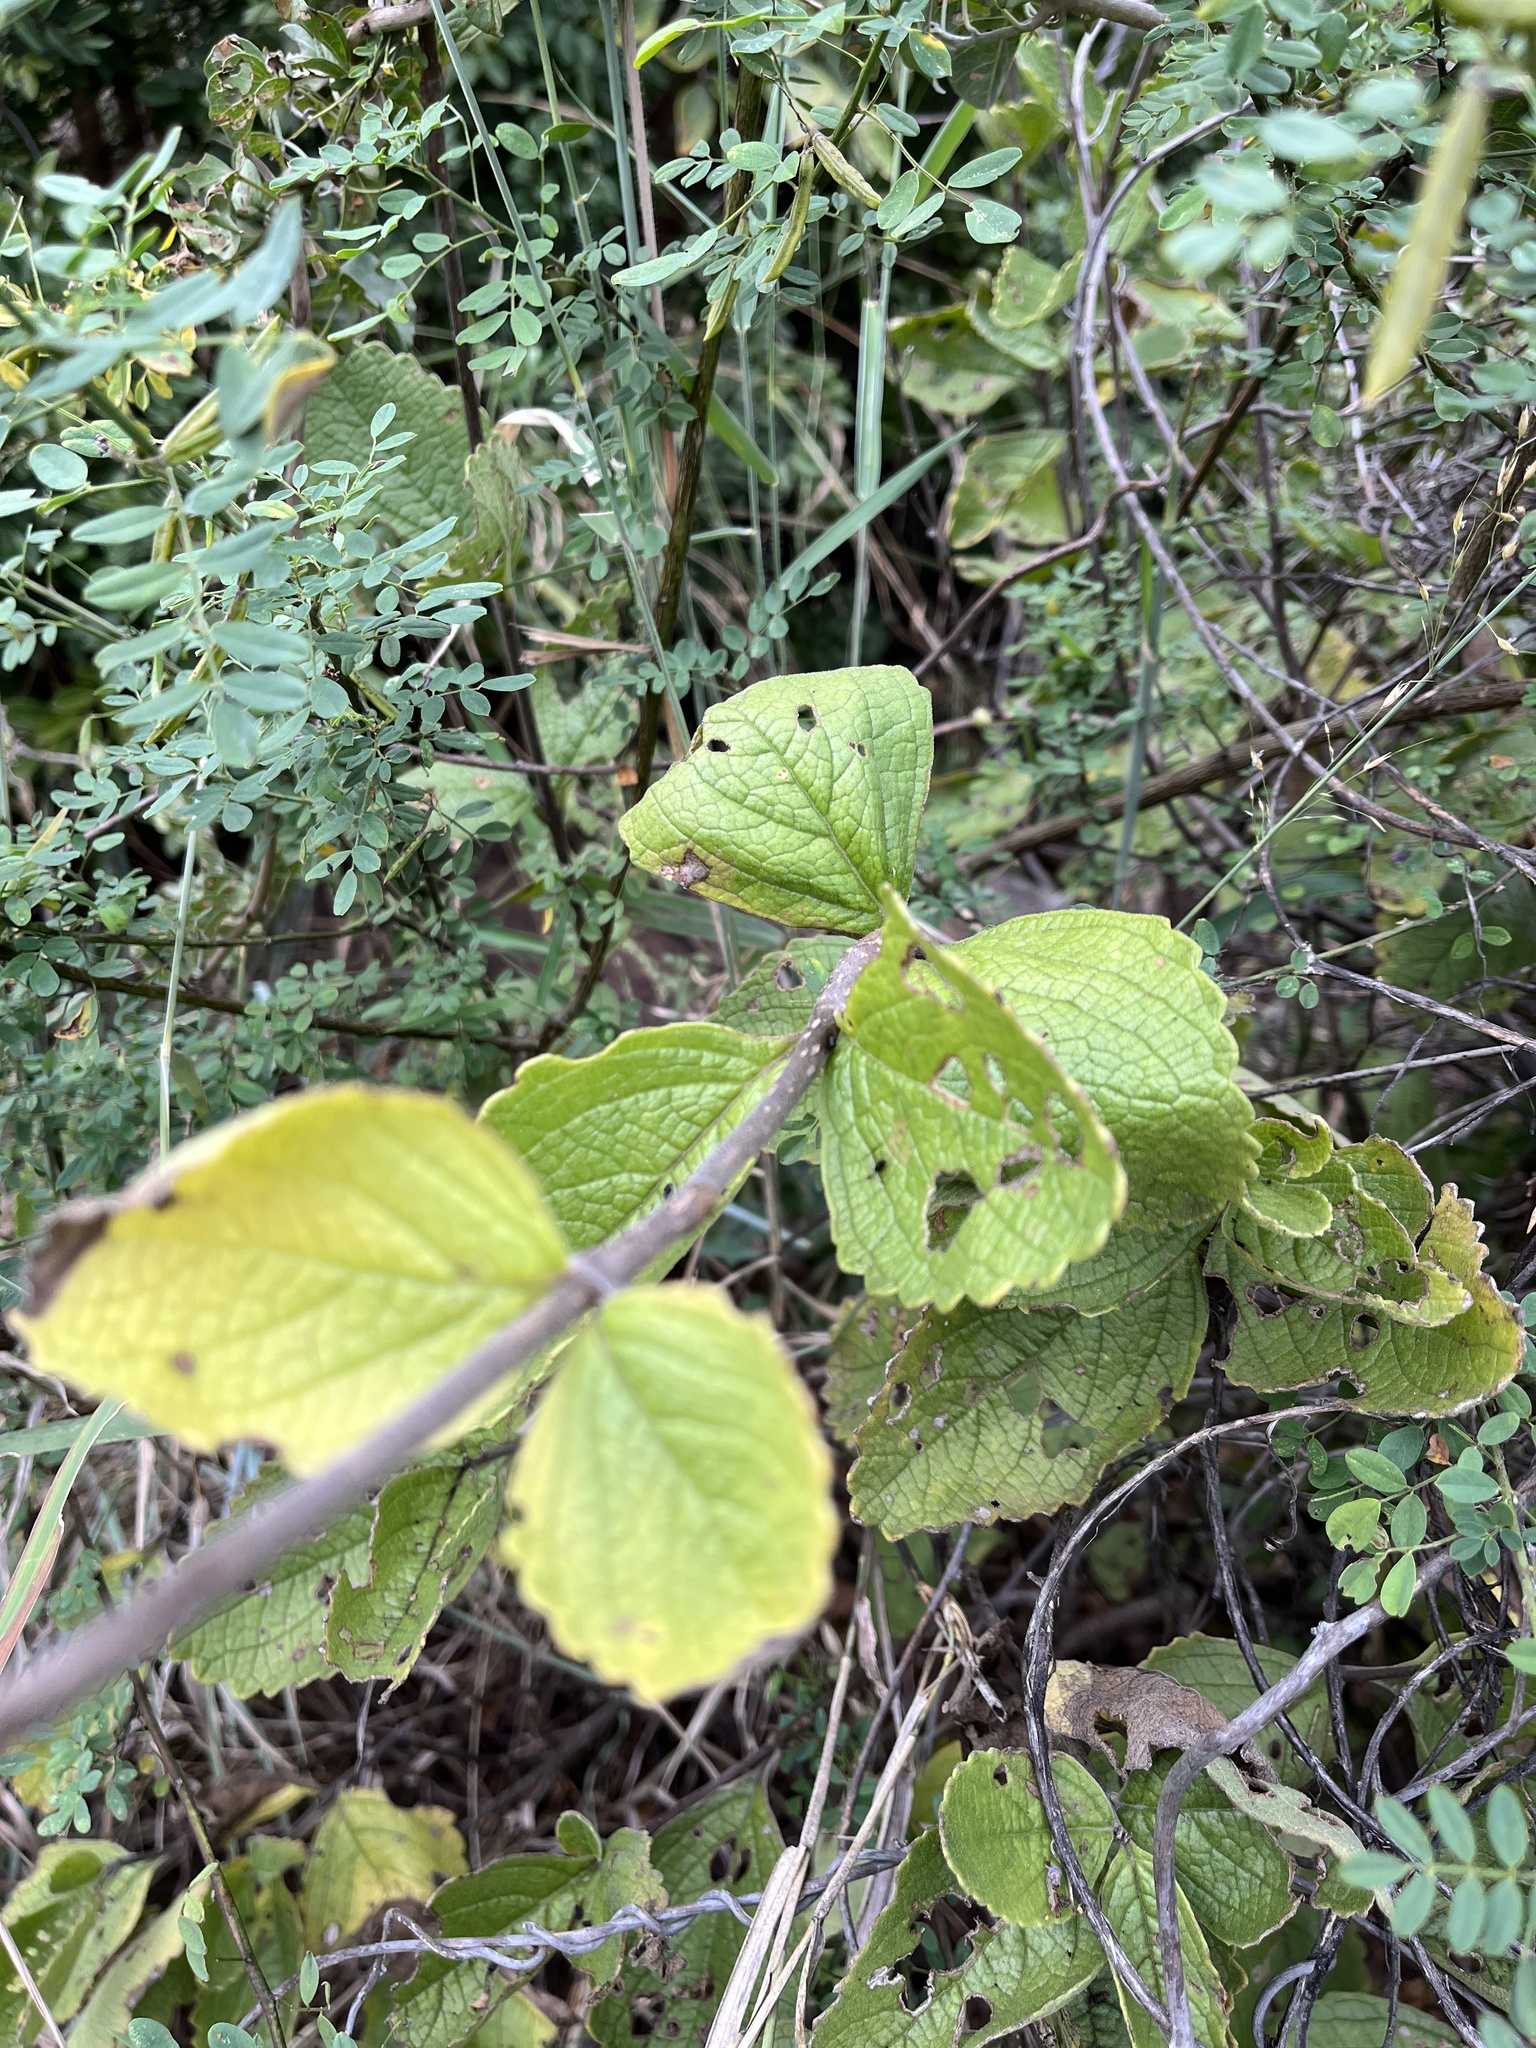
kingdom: Plantae
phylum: Tracheophyta
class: Magnoliopsida
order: Lamiales
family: Lamiaceae
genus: Coleus
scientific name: Coleus xerophilus
